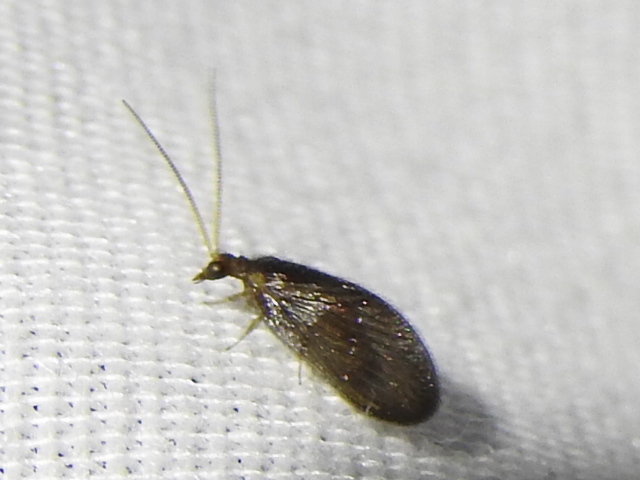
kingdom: Animalia
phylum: Arthropoda
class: Insecta
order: Neuroptera
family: Hemerobiidae
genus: Sympherobius
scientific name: Sympherobius umbratus
